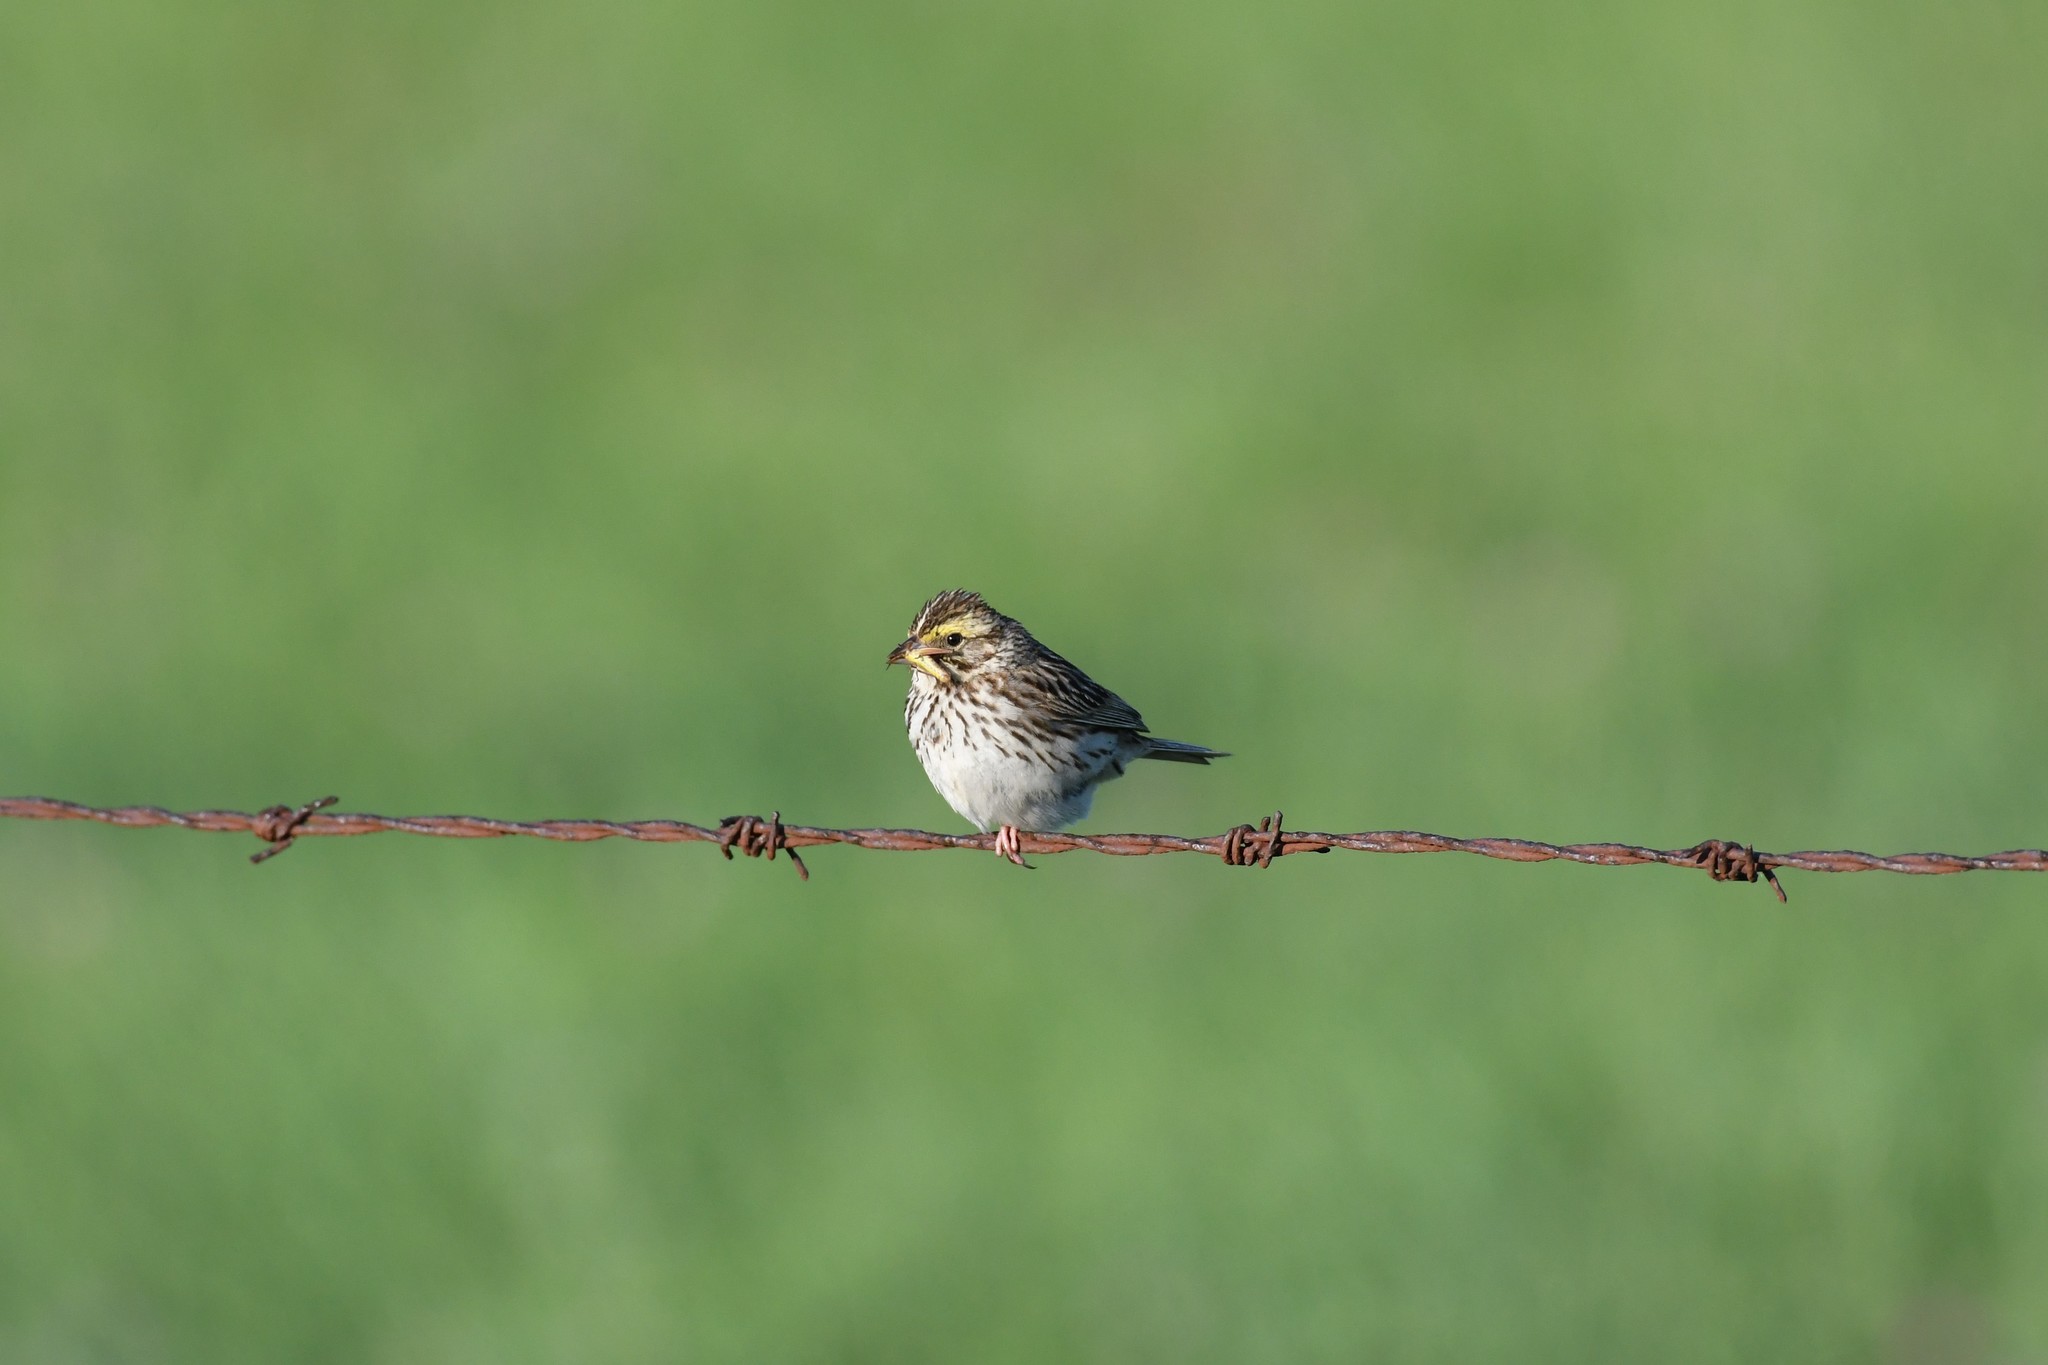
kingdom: Animalia
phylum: Chordata
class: Aves
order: Passeriformes
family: Passerellidae
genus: Passerculus
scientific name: Passerculus sandwichensis
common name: Savannah sparrow
